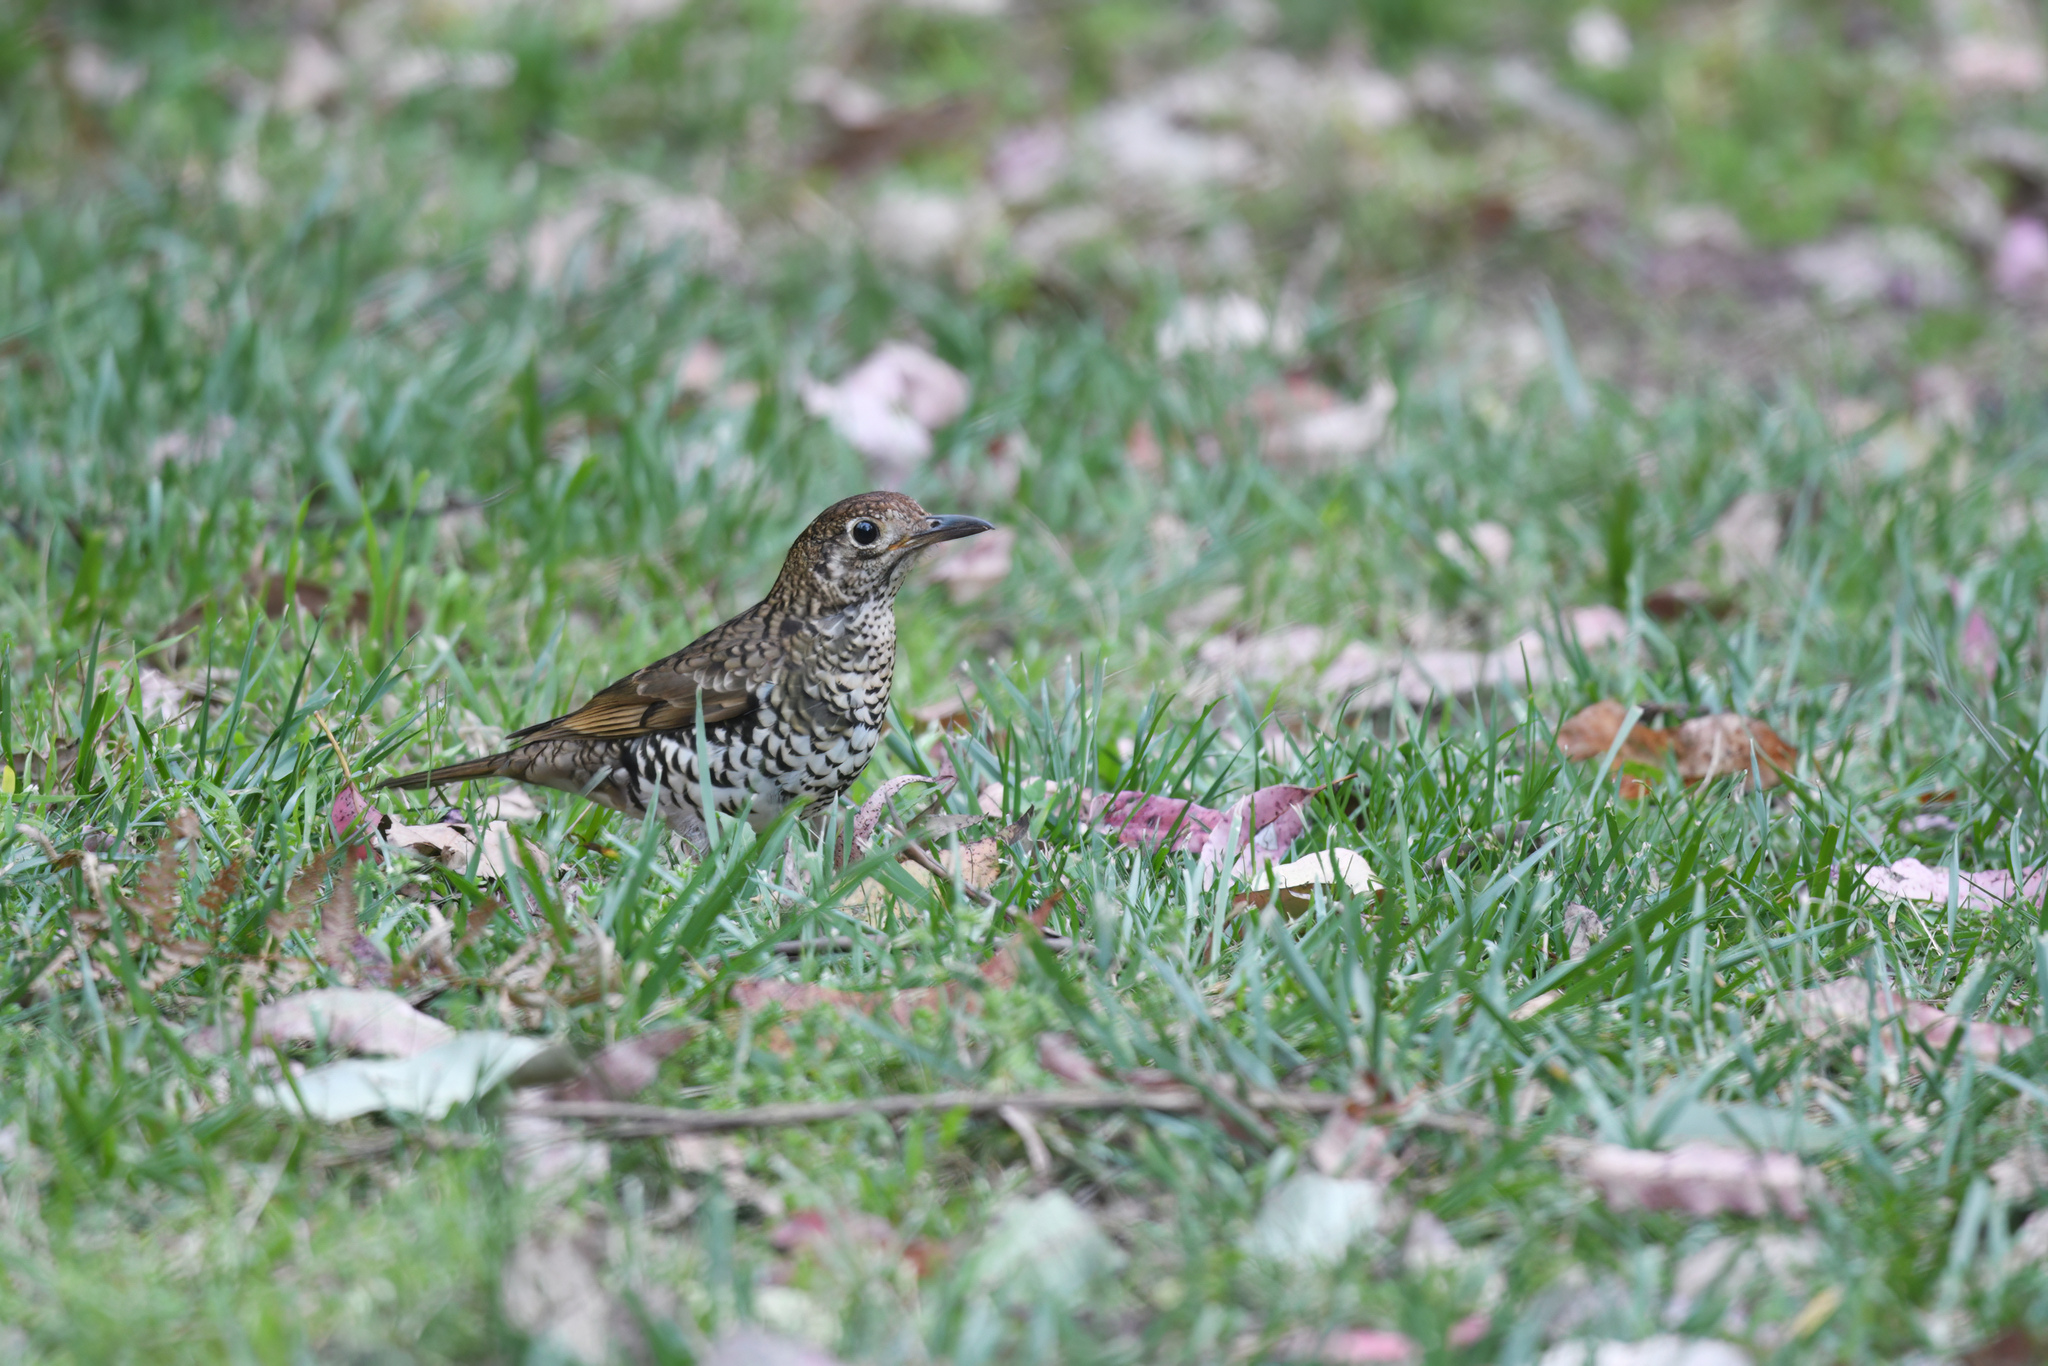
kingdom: Animalia
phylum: Chordata
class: Aves
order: Passeriformes
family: Turdidae
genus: Zoothera
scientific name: Zoothera lunulata
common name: Bassian thrush
